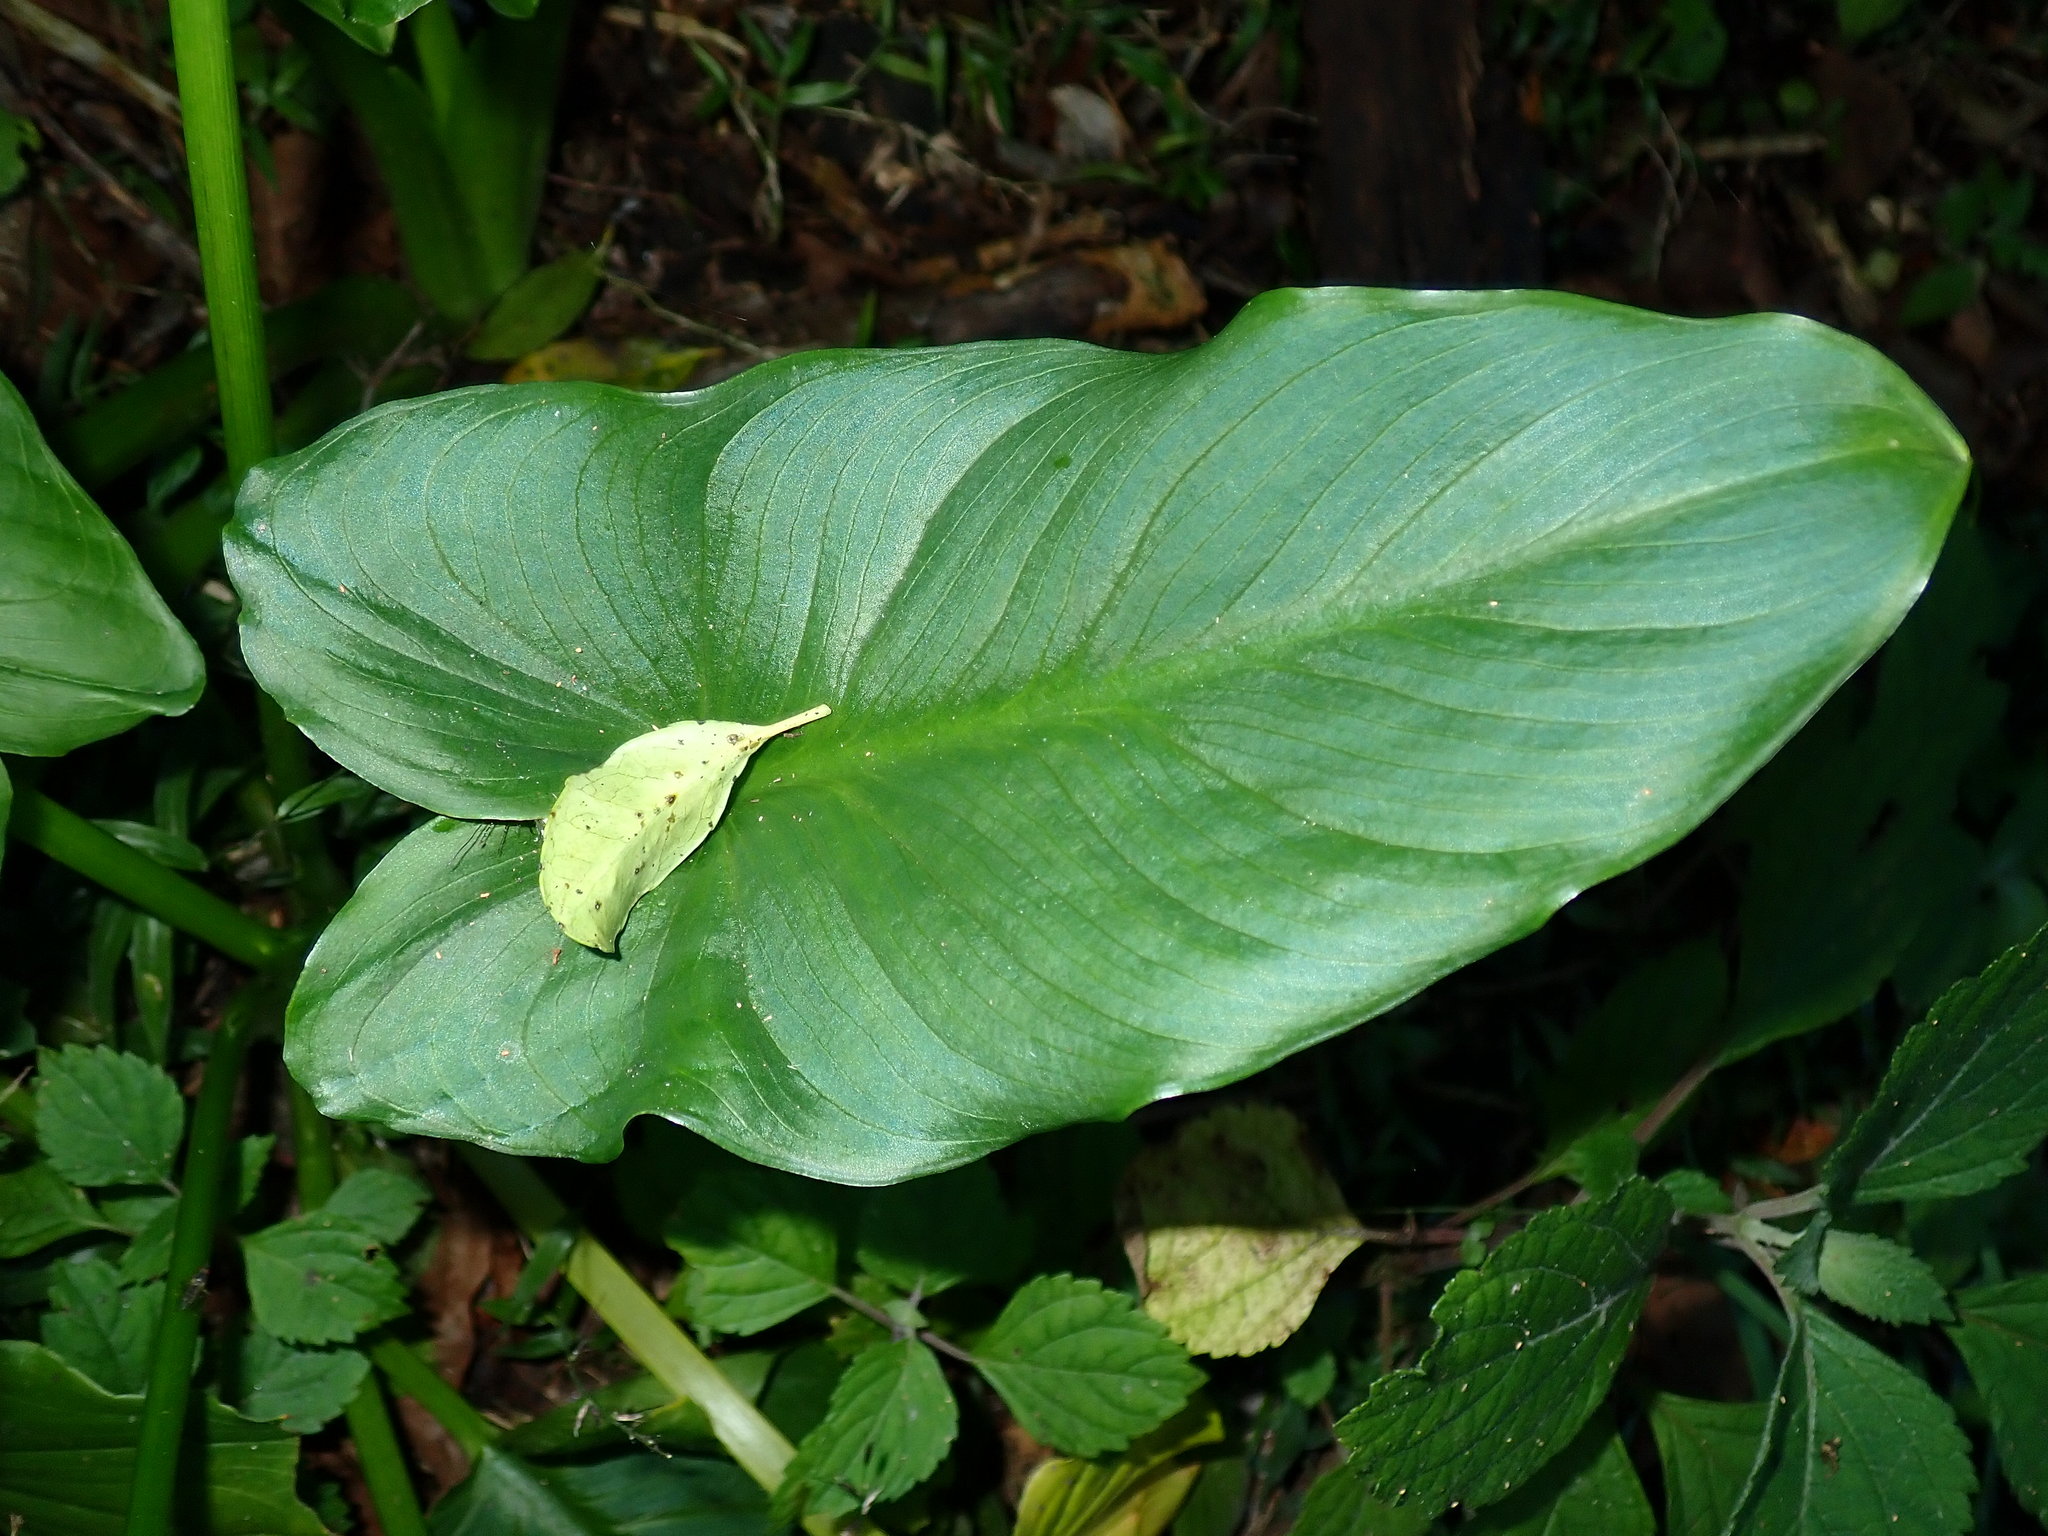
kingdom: Plantae
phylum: Tracheophyta
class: Liliopsida
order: Alismatales
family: Araceae
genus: Zantedeschia
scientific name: Zantedeschia aethiopica
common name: Altar-lily
